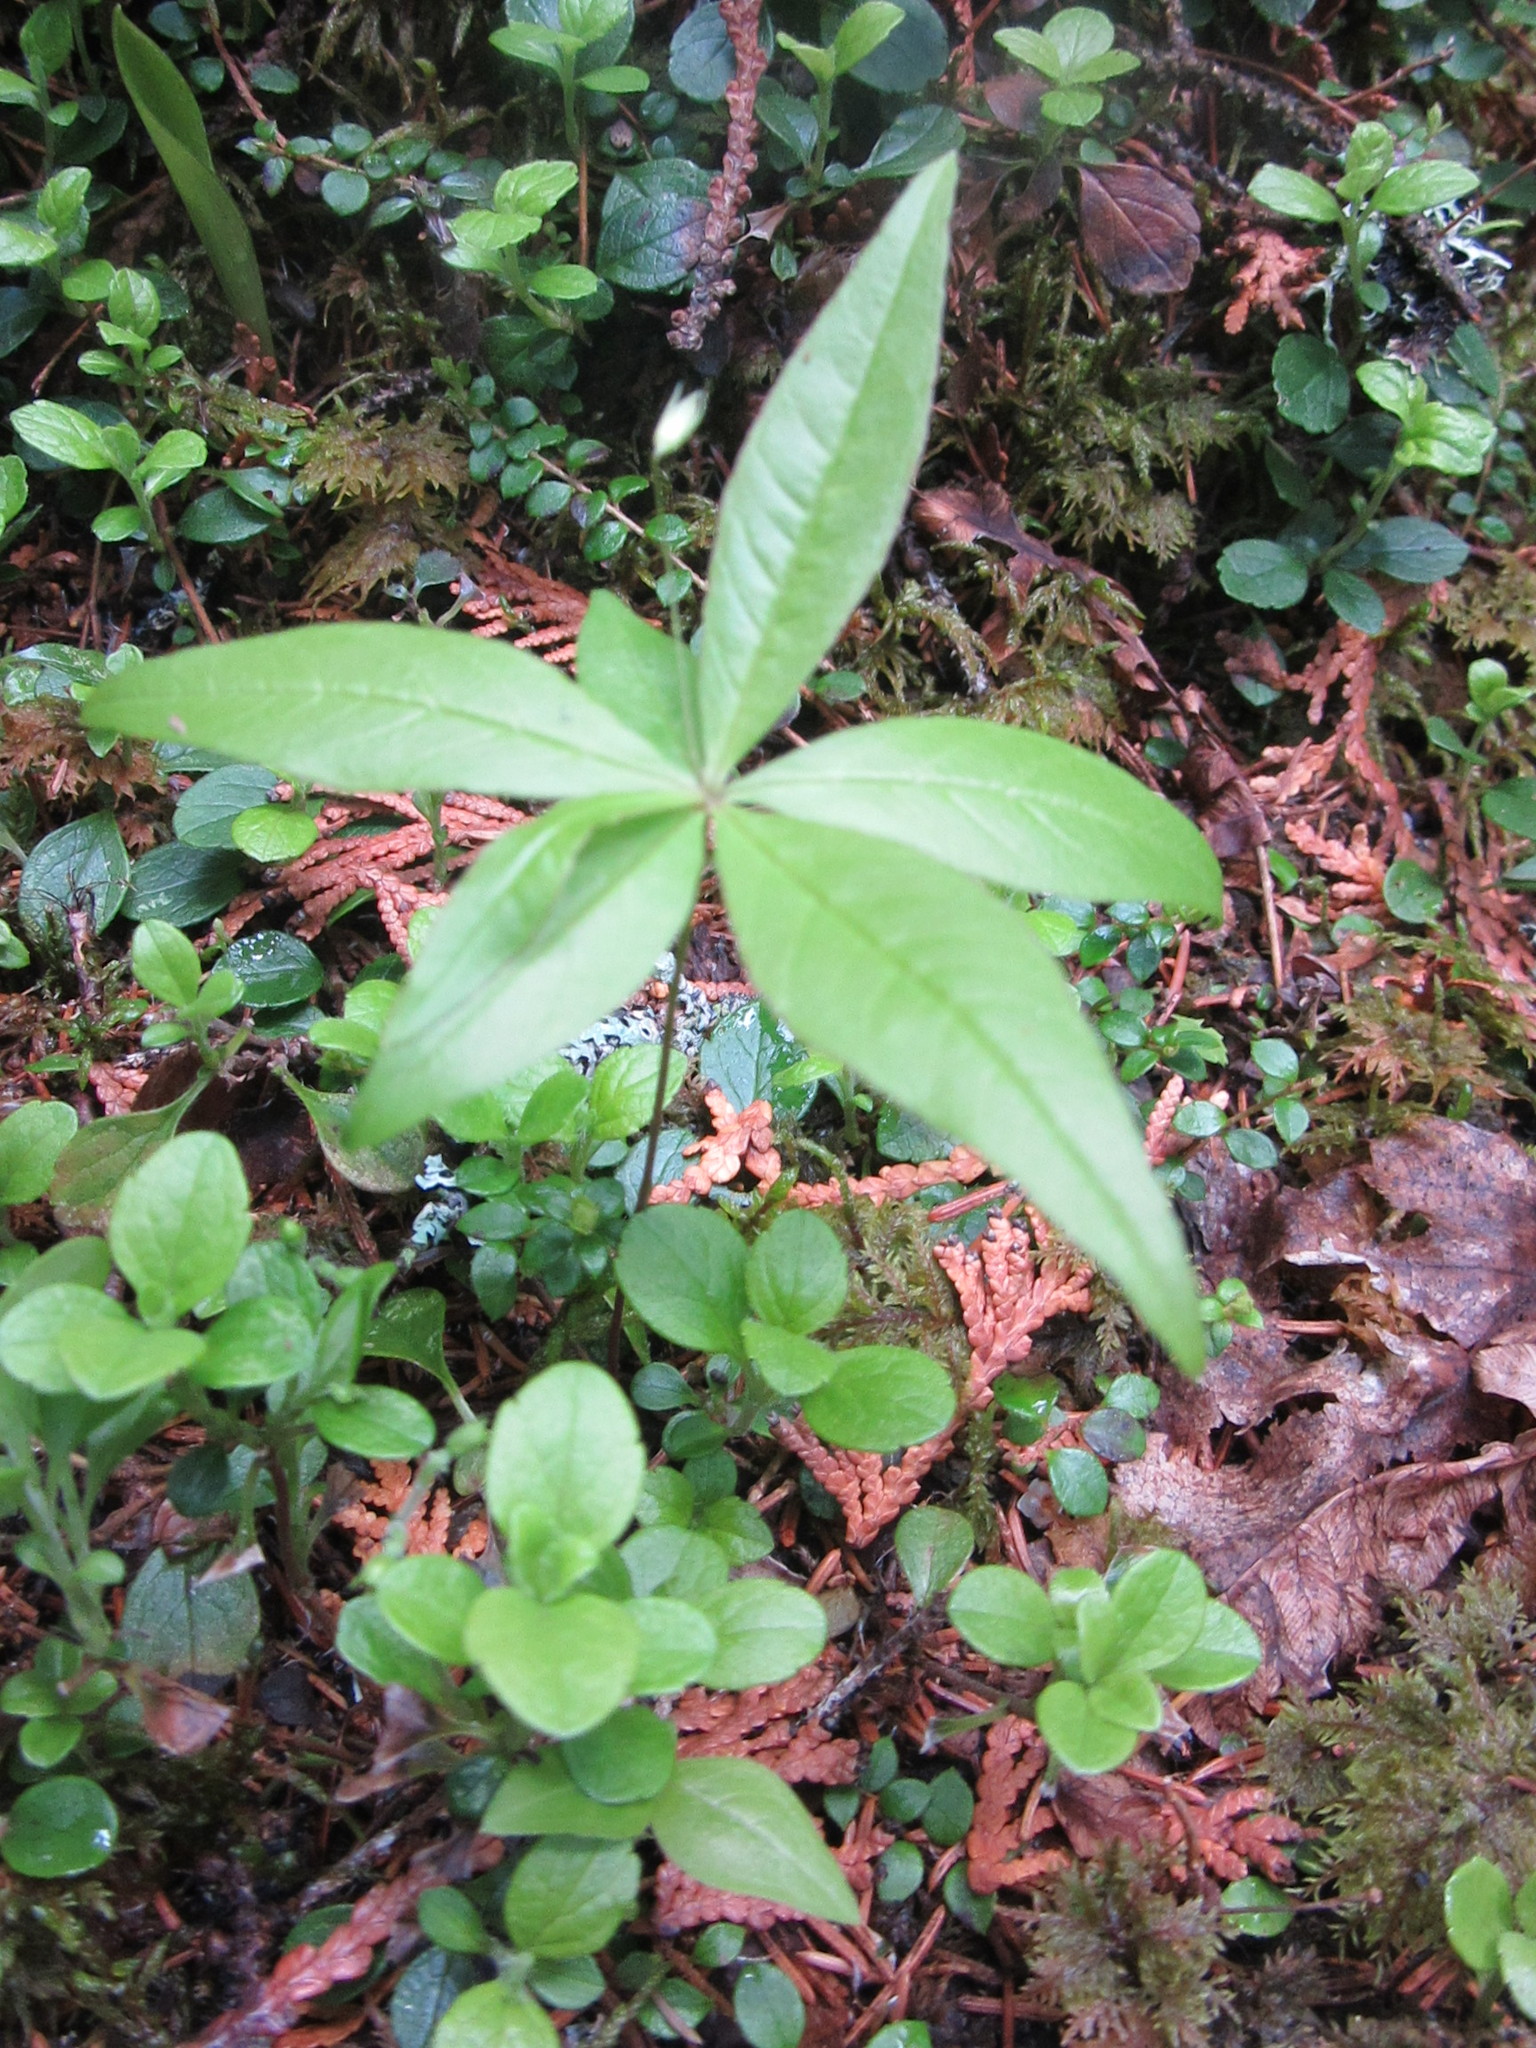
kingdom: Plantae
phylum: Tracheophyta
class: Magnoliopsida
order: Ericales
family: Primulaceae
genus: Lysimachia
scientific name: Lysimachia borealis
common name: American starflower
